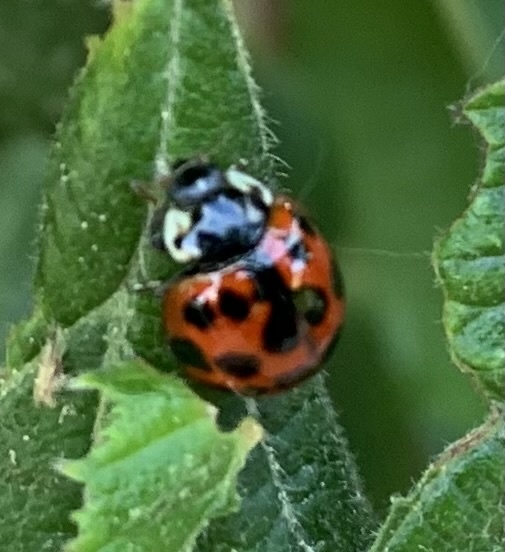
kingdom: Animalia
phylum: Arthropoda
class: Insecta
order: Coleoptera
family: Coccinellidae
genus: Harmonia
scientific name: Harmonia axyridis
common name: Harlequin ladybird
